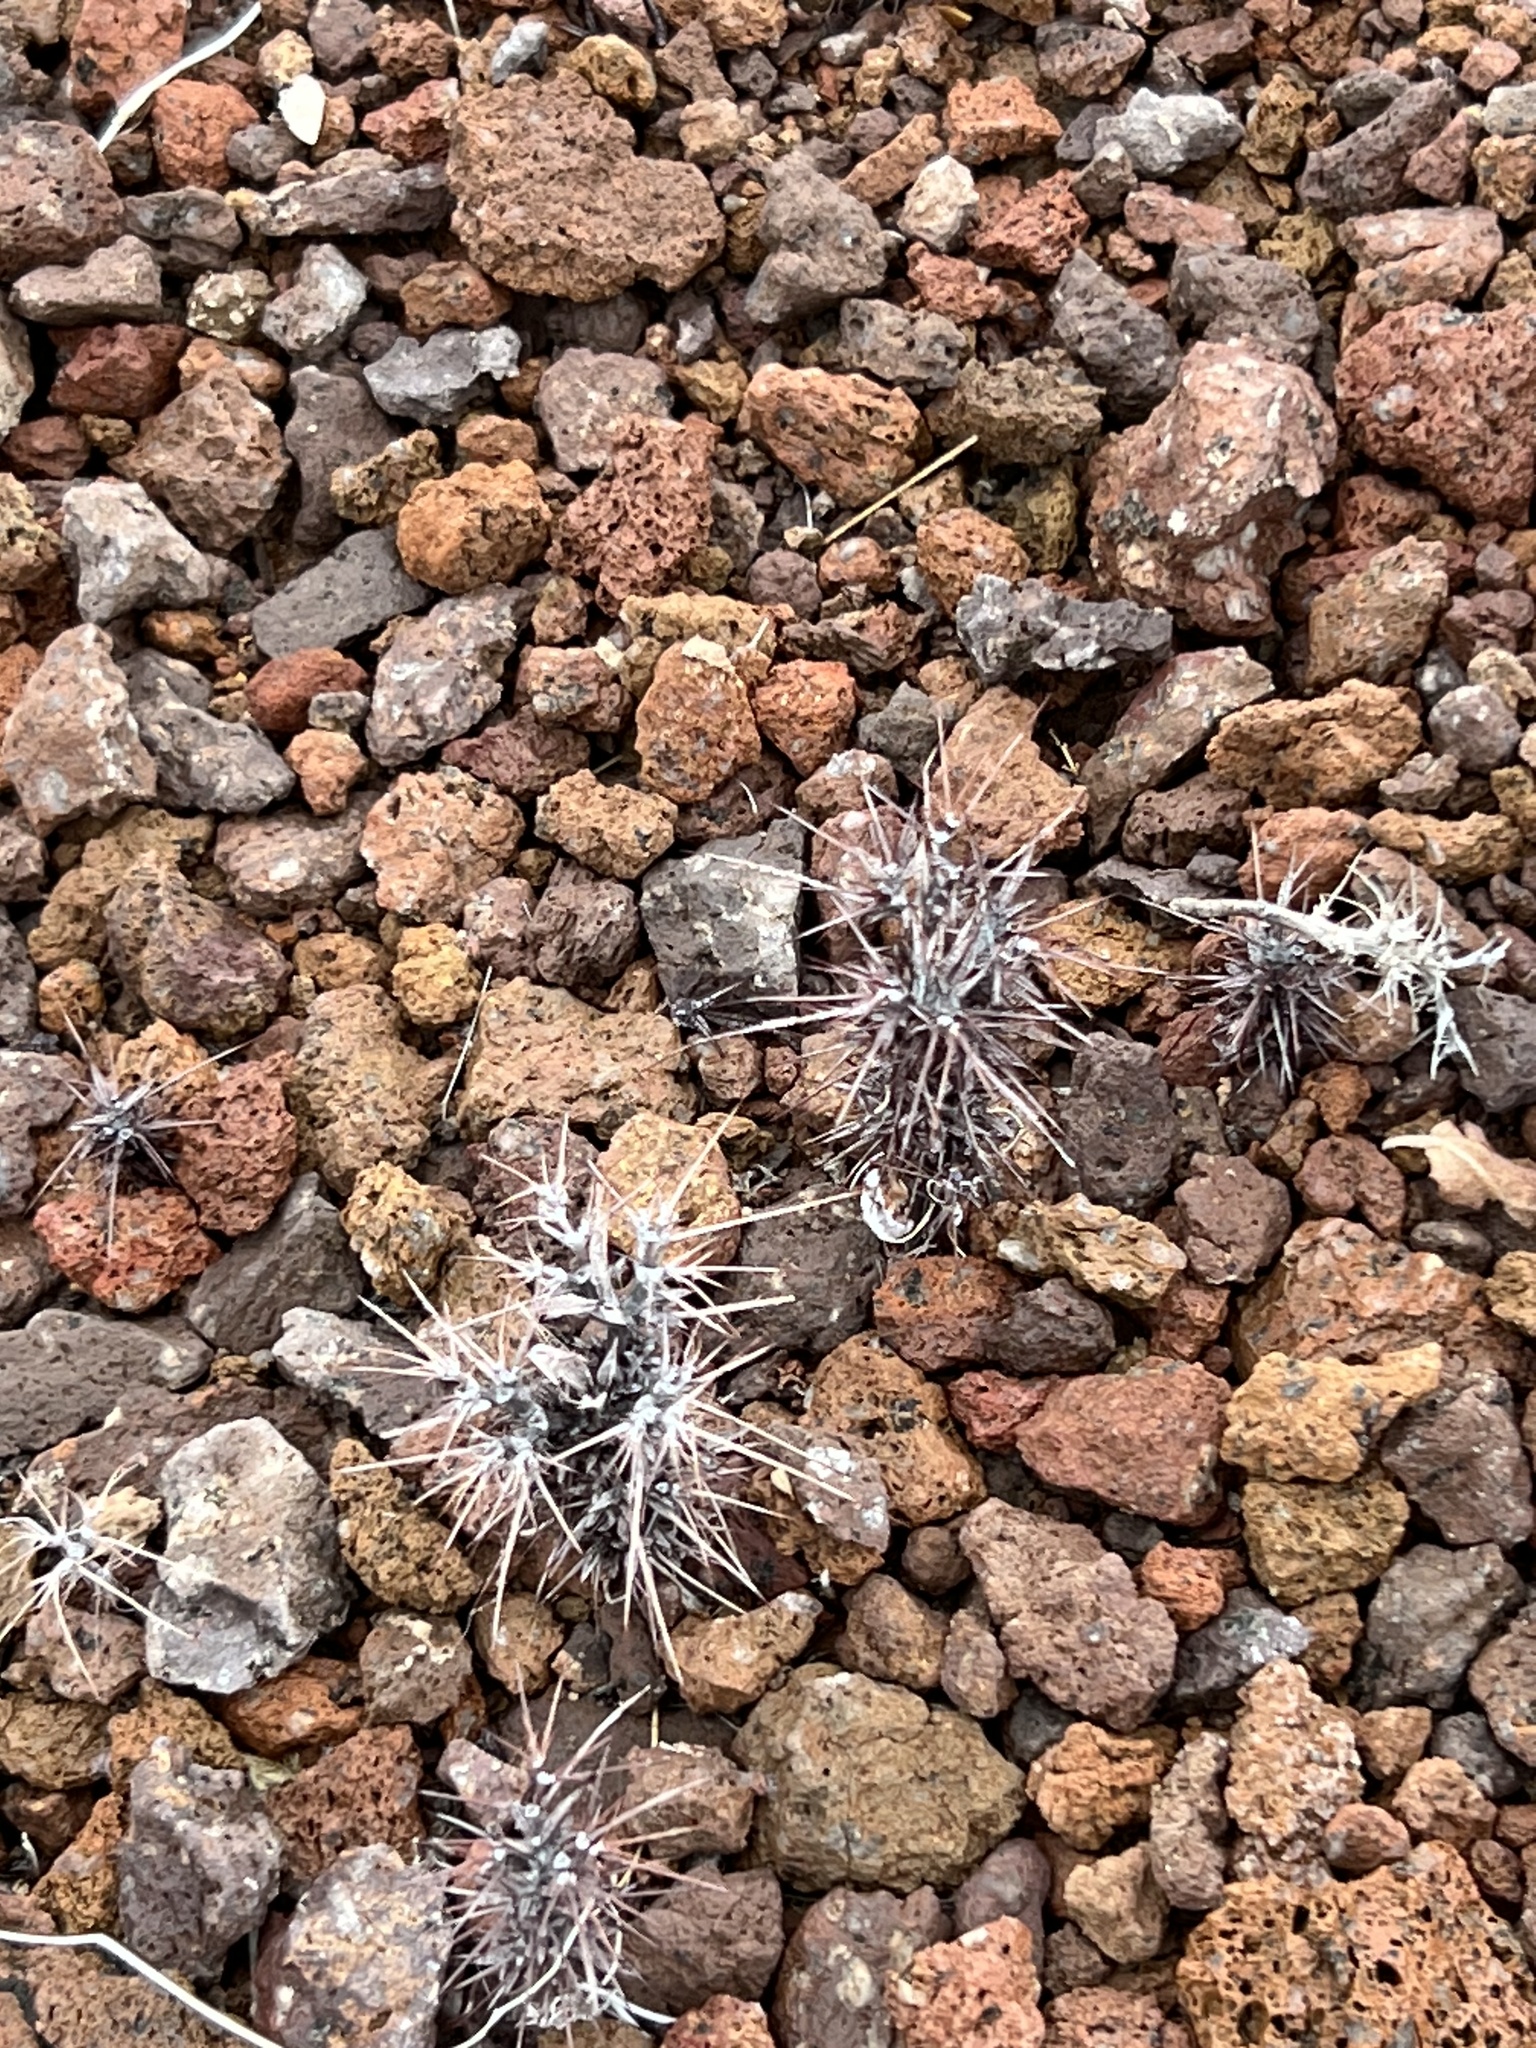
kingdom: Plantae
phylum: Tracheophyta
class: Magnoliopsida
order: Caryophyllales
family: Polygonaceae
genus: Chorizanthe
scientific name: Chorizanthe rigida
